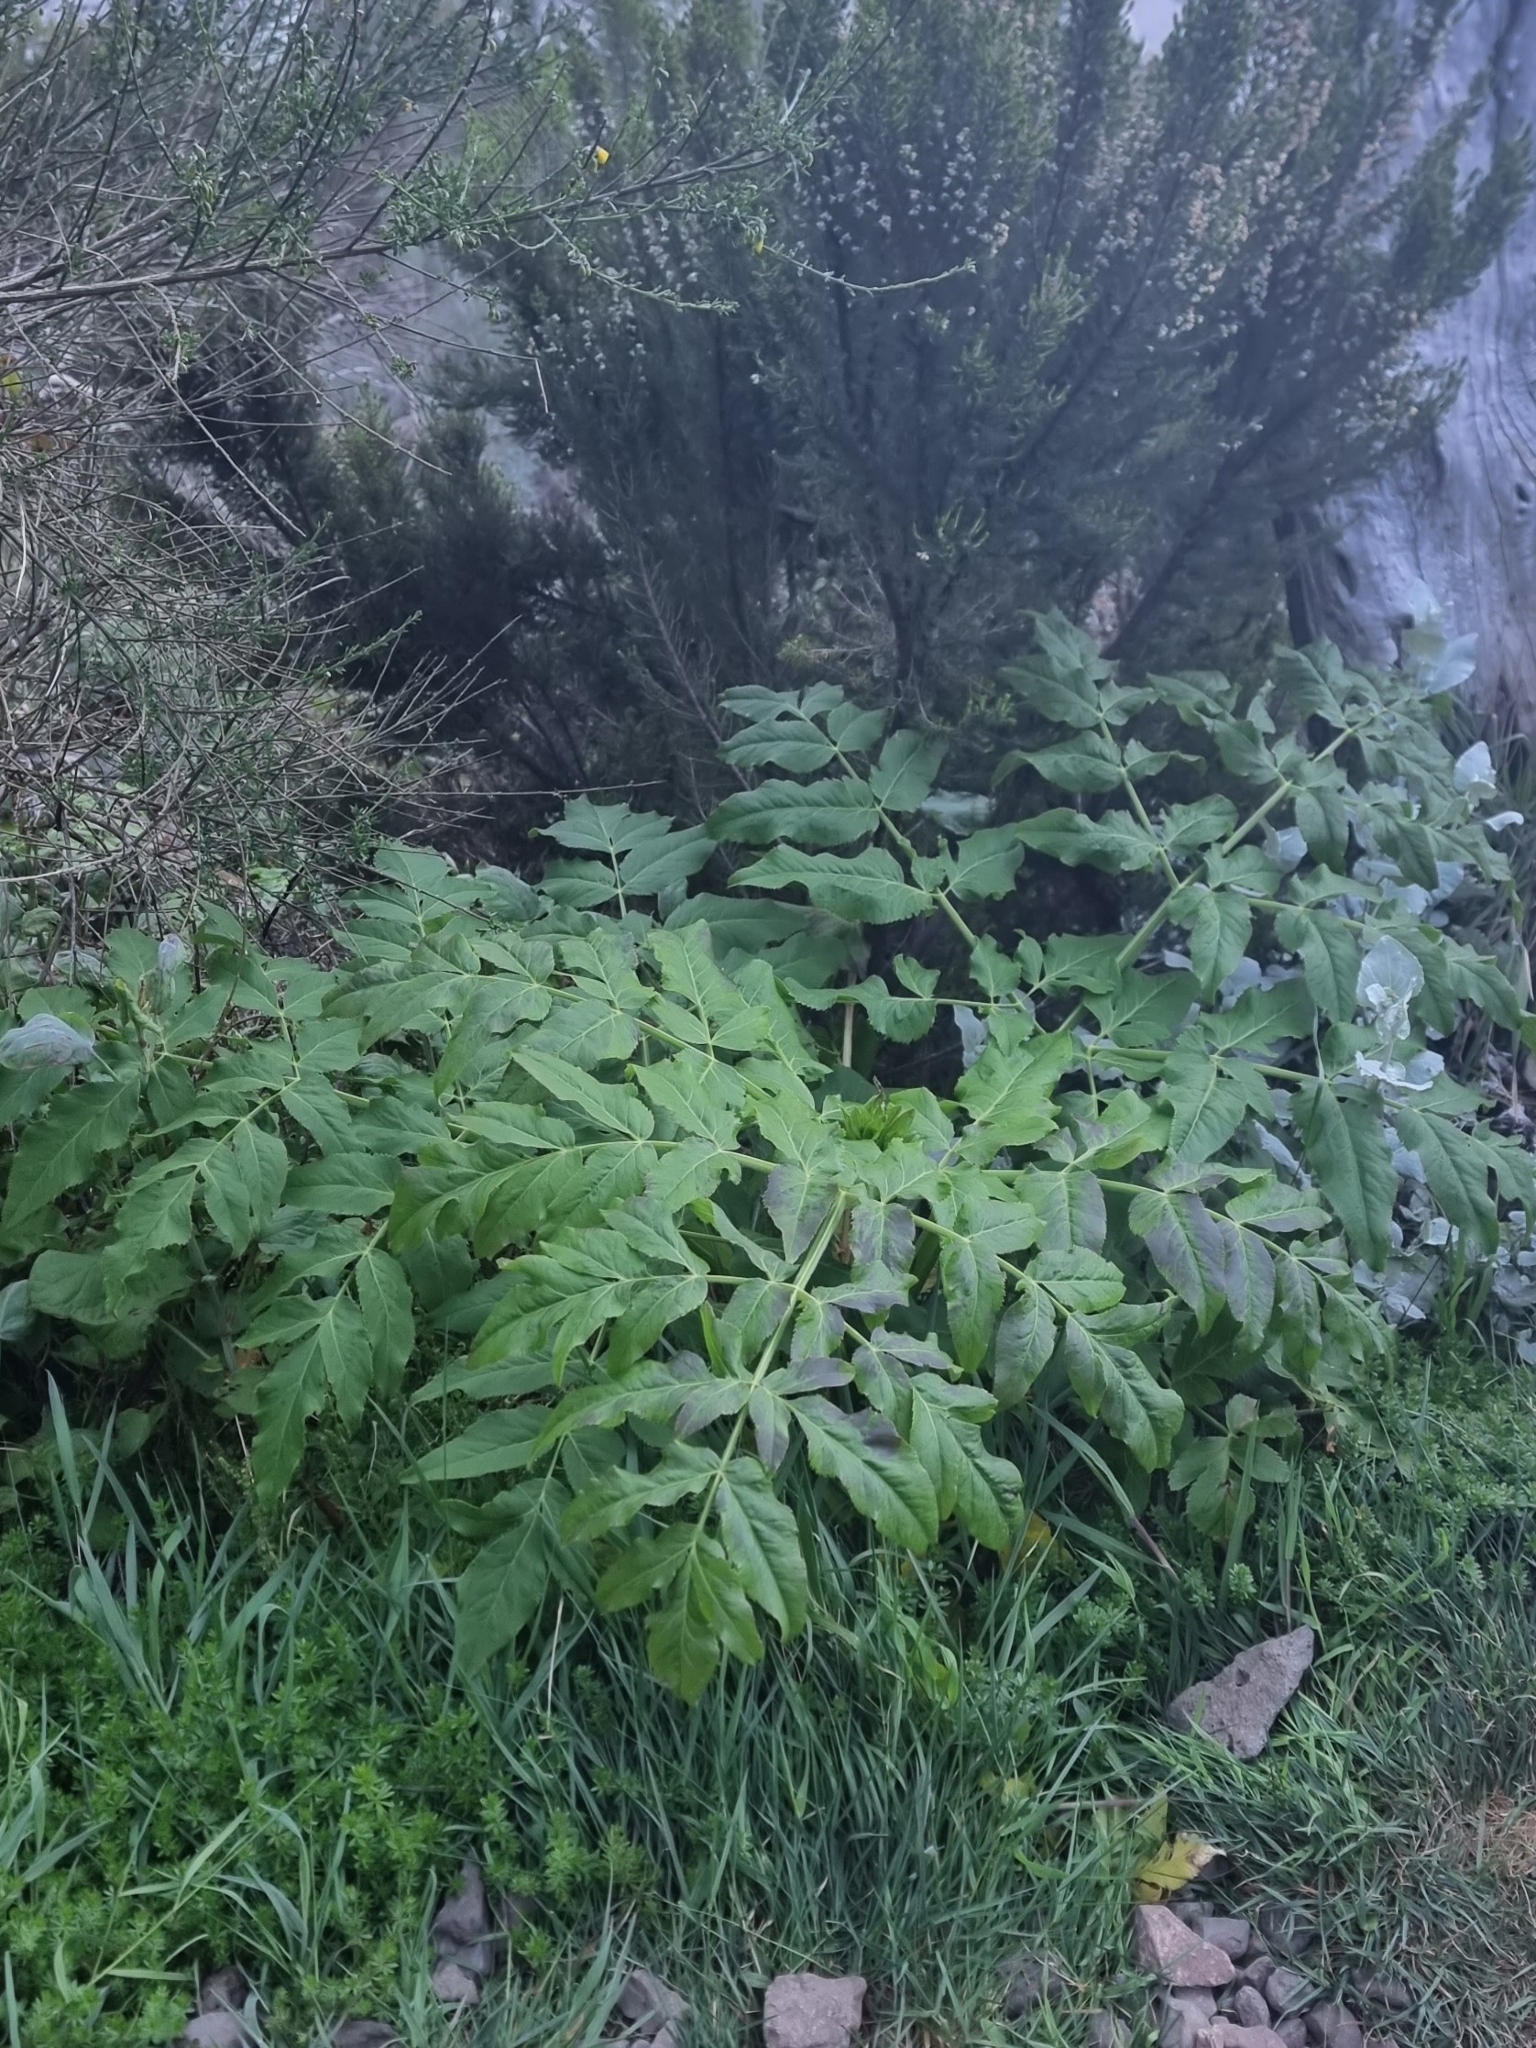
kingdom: Plantae
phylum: Tracheophyta
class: Magnoliopsida
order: Apiales
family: Apiaceae
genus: Daucus
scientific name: Daucus decipiens
